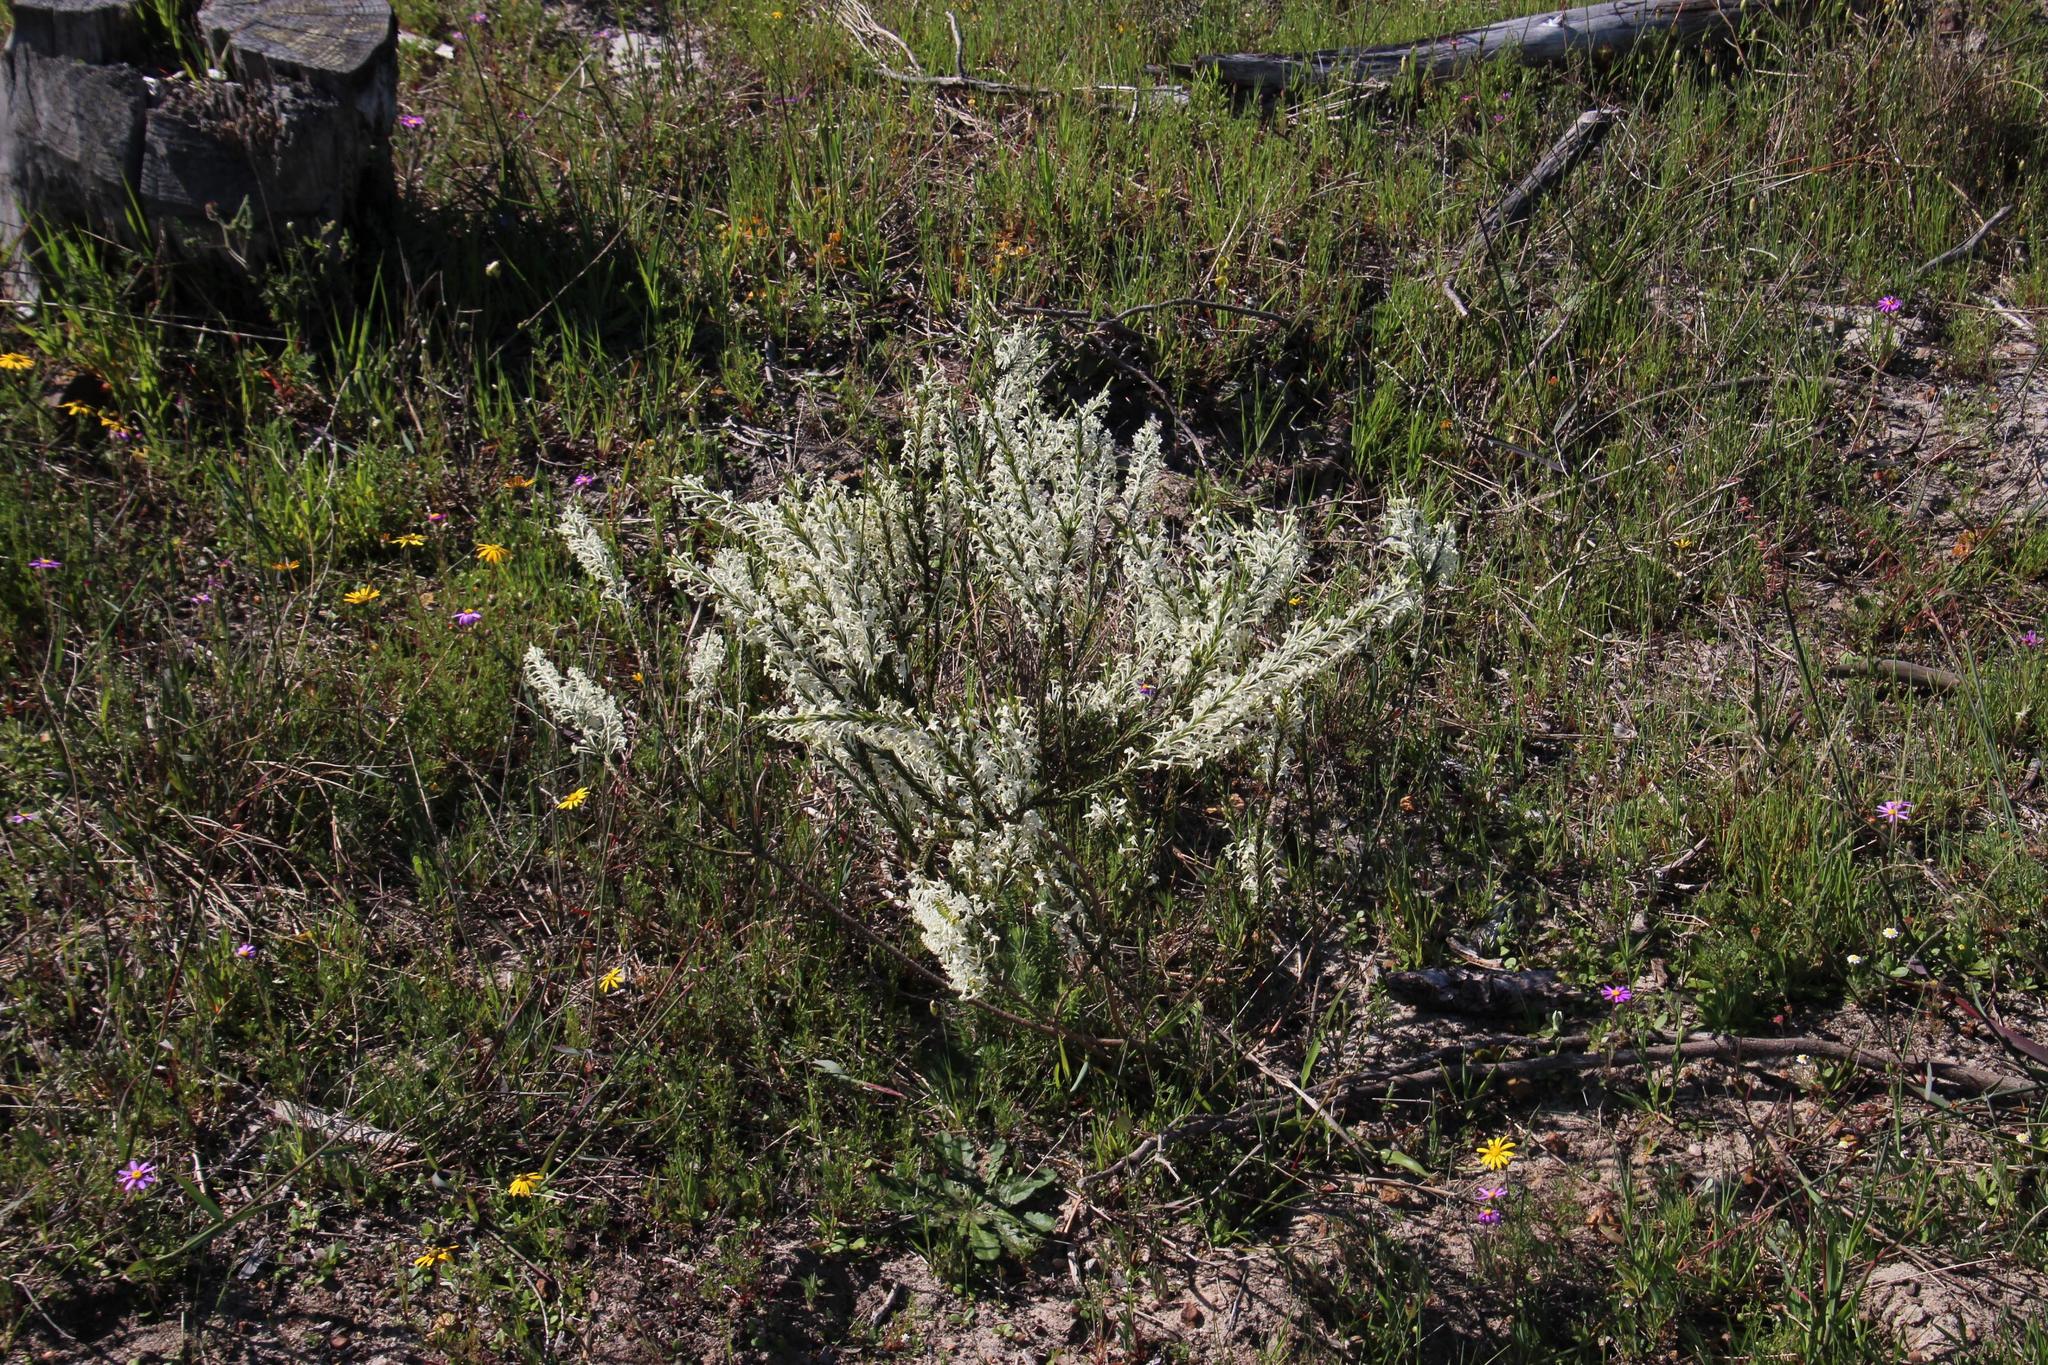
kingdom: Plantae
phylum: Tracheophyta
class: Magnoliopsida
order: Malvales
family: Thymelaeaceae
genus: Struthiola
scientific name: Struthiola dodecandra
